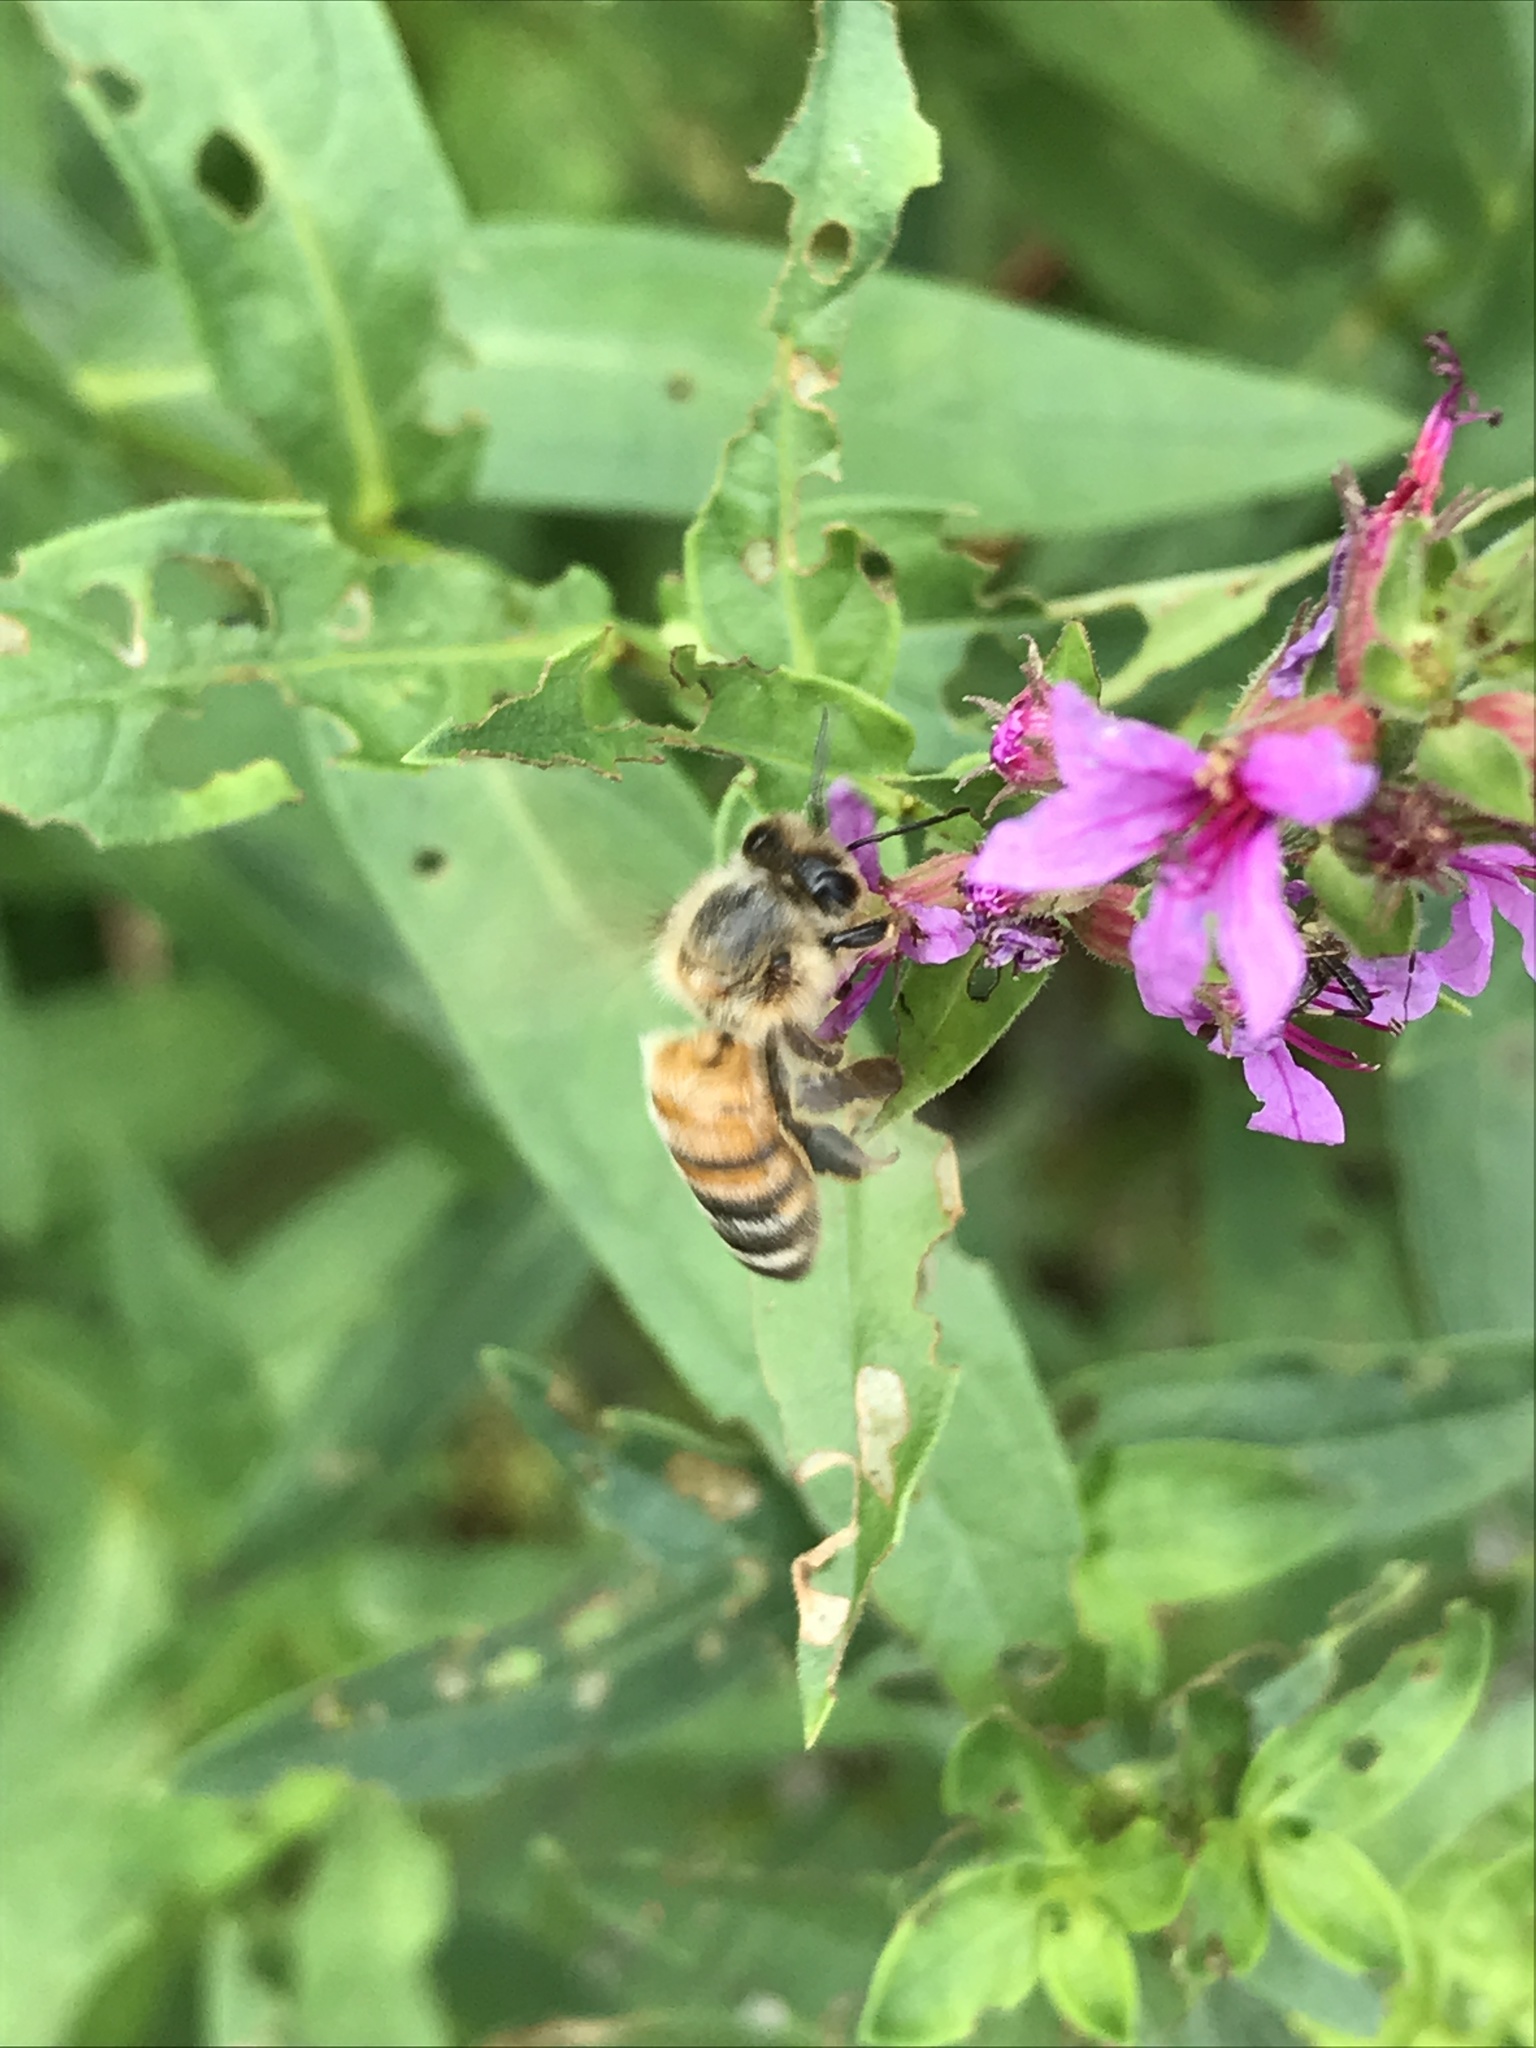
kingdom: Animalia
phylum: Arthropoda
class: Insecta
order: Hymenoptera
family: Apidae
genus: Apis
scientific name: Apis mellifera
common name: Honey bee
